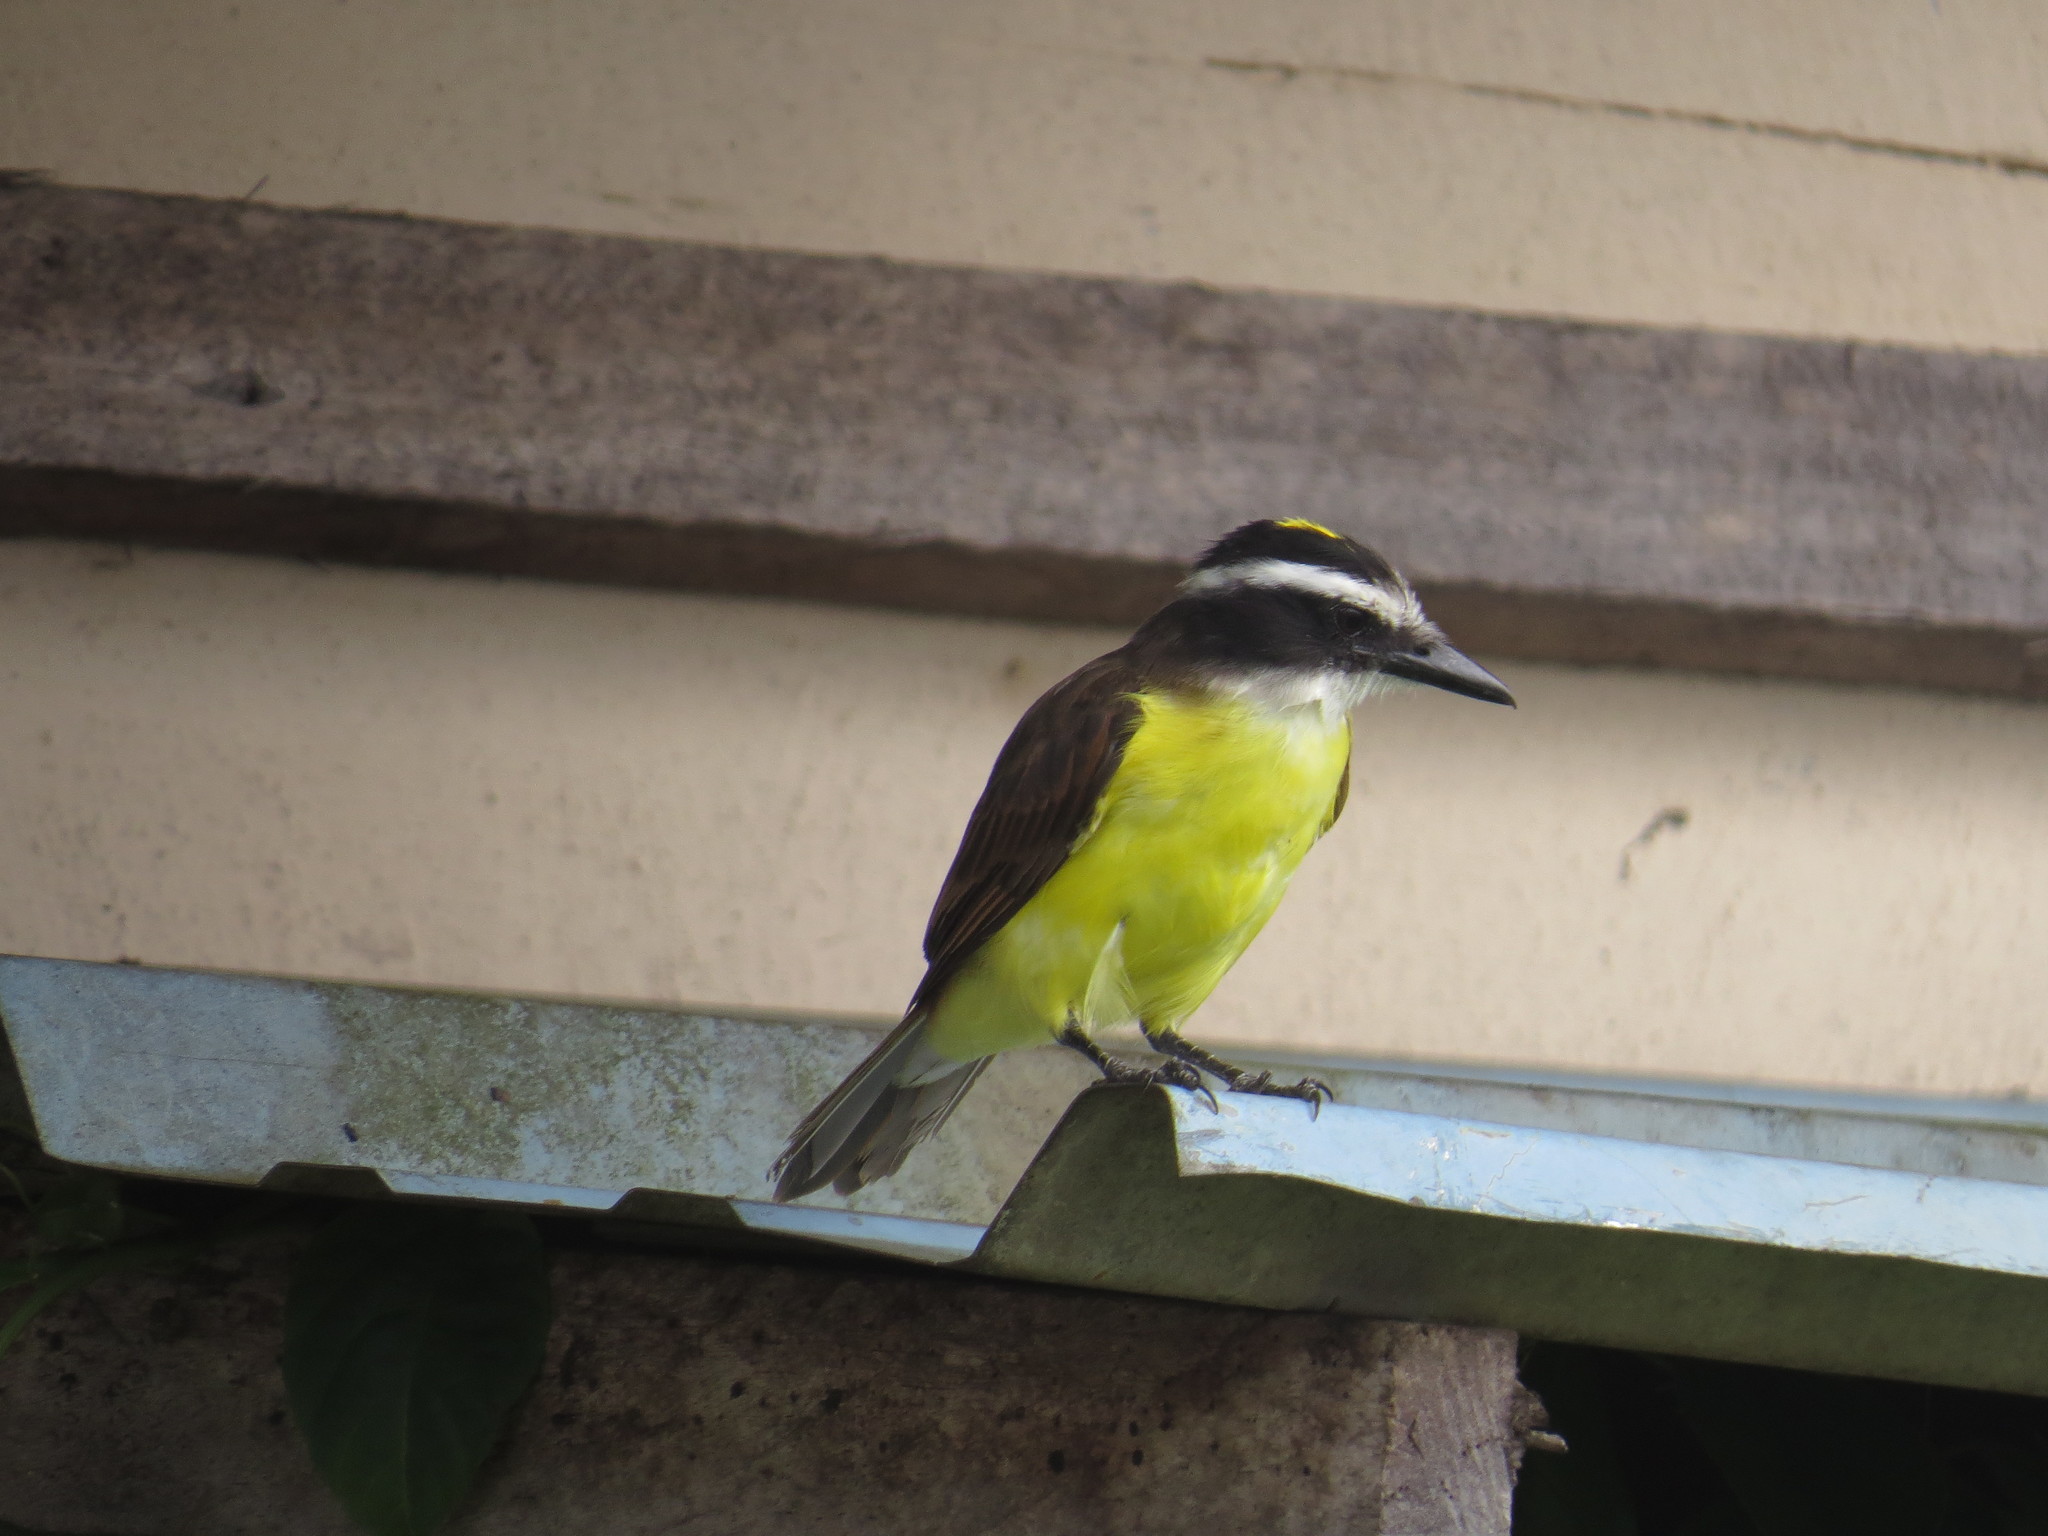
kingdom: Animalia
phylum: Chordata
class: Aves
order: Passeriformes
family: Tyrannidae
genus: Pitangus
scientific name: Pitangus sulphuratus
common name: Great kiskadee
